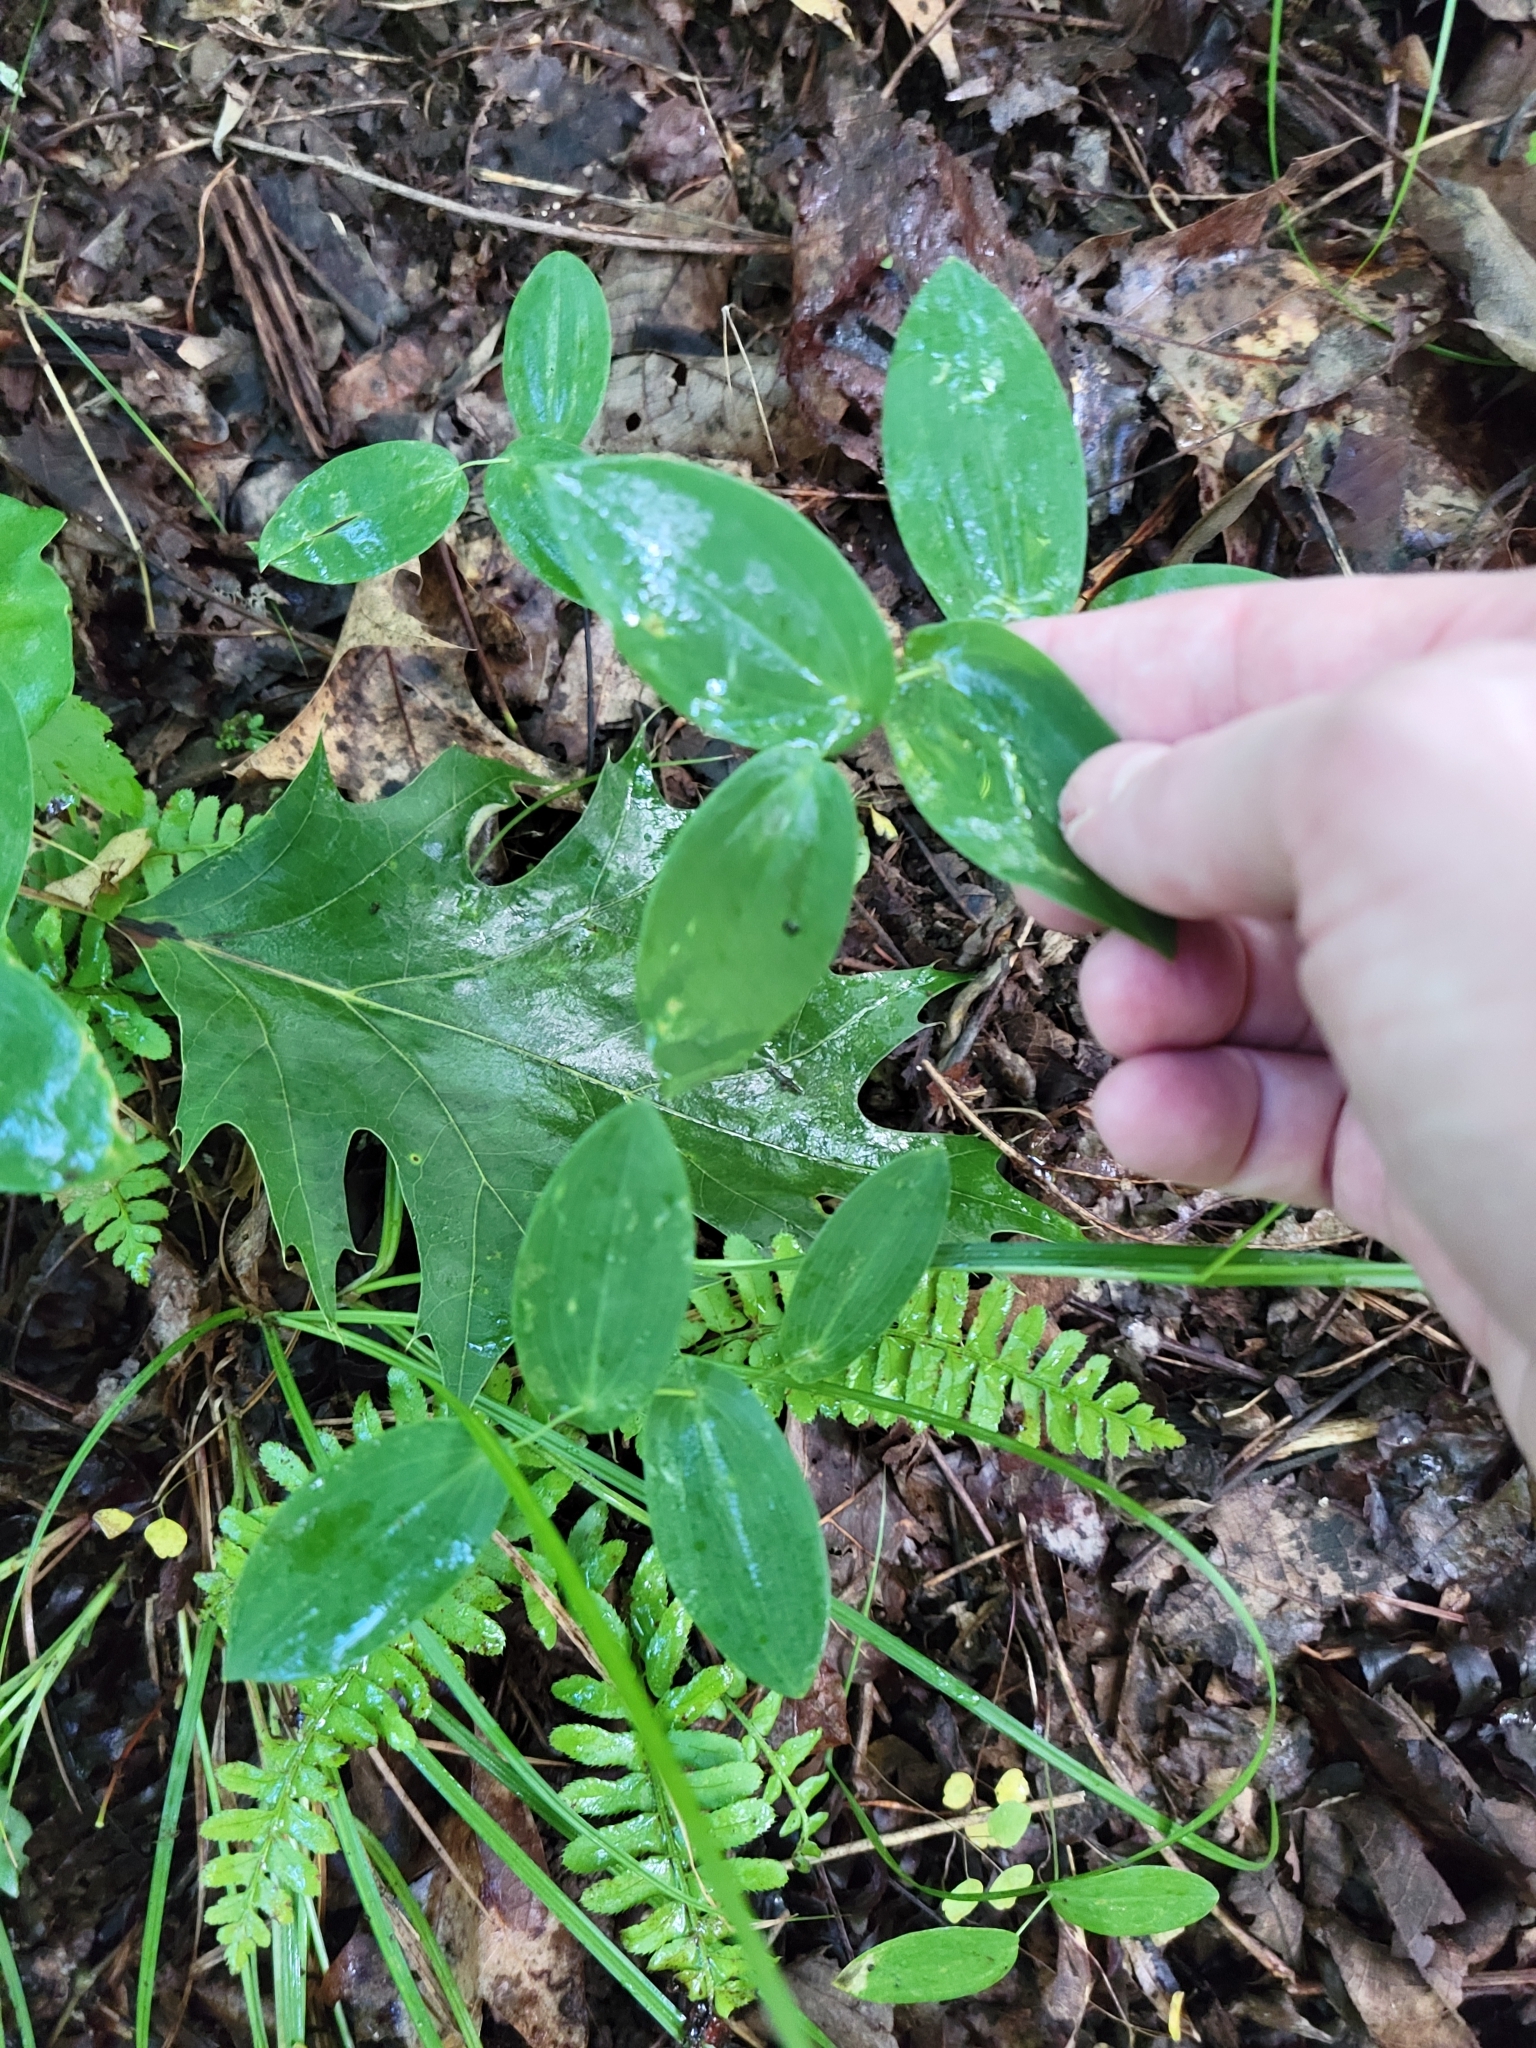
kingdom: Plantae
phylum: Tracheophyta
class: Liliopsida
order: Liliales
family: Colchicaceae
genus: Uvularia
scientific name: Uvularia perfoliata
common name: Perfoliate bellwort
